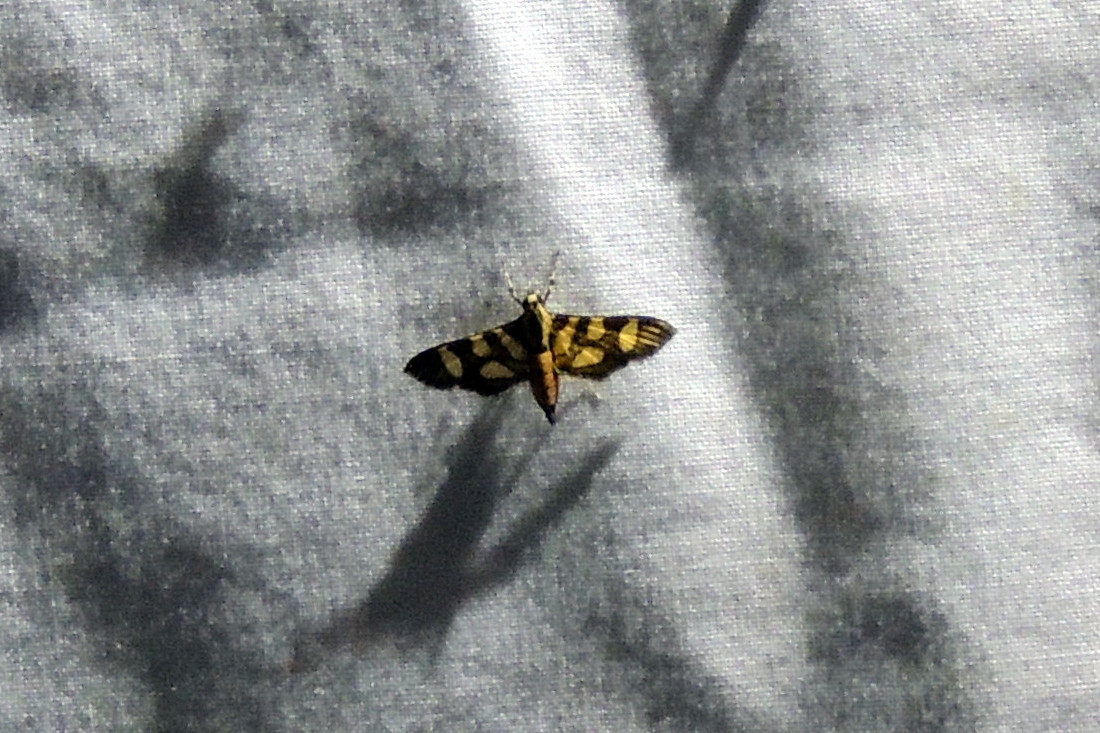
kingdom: Animalia
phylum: Arthropoda
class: Insecta
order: Lepidoptera
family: Crambidae
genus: Syngamia
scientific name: Syngamia florella
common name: Orange-spotted flower moth
